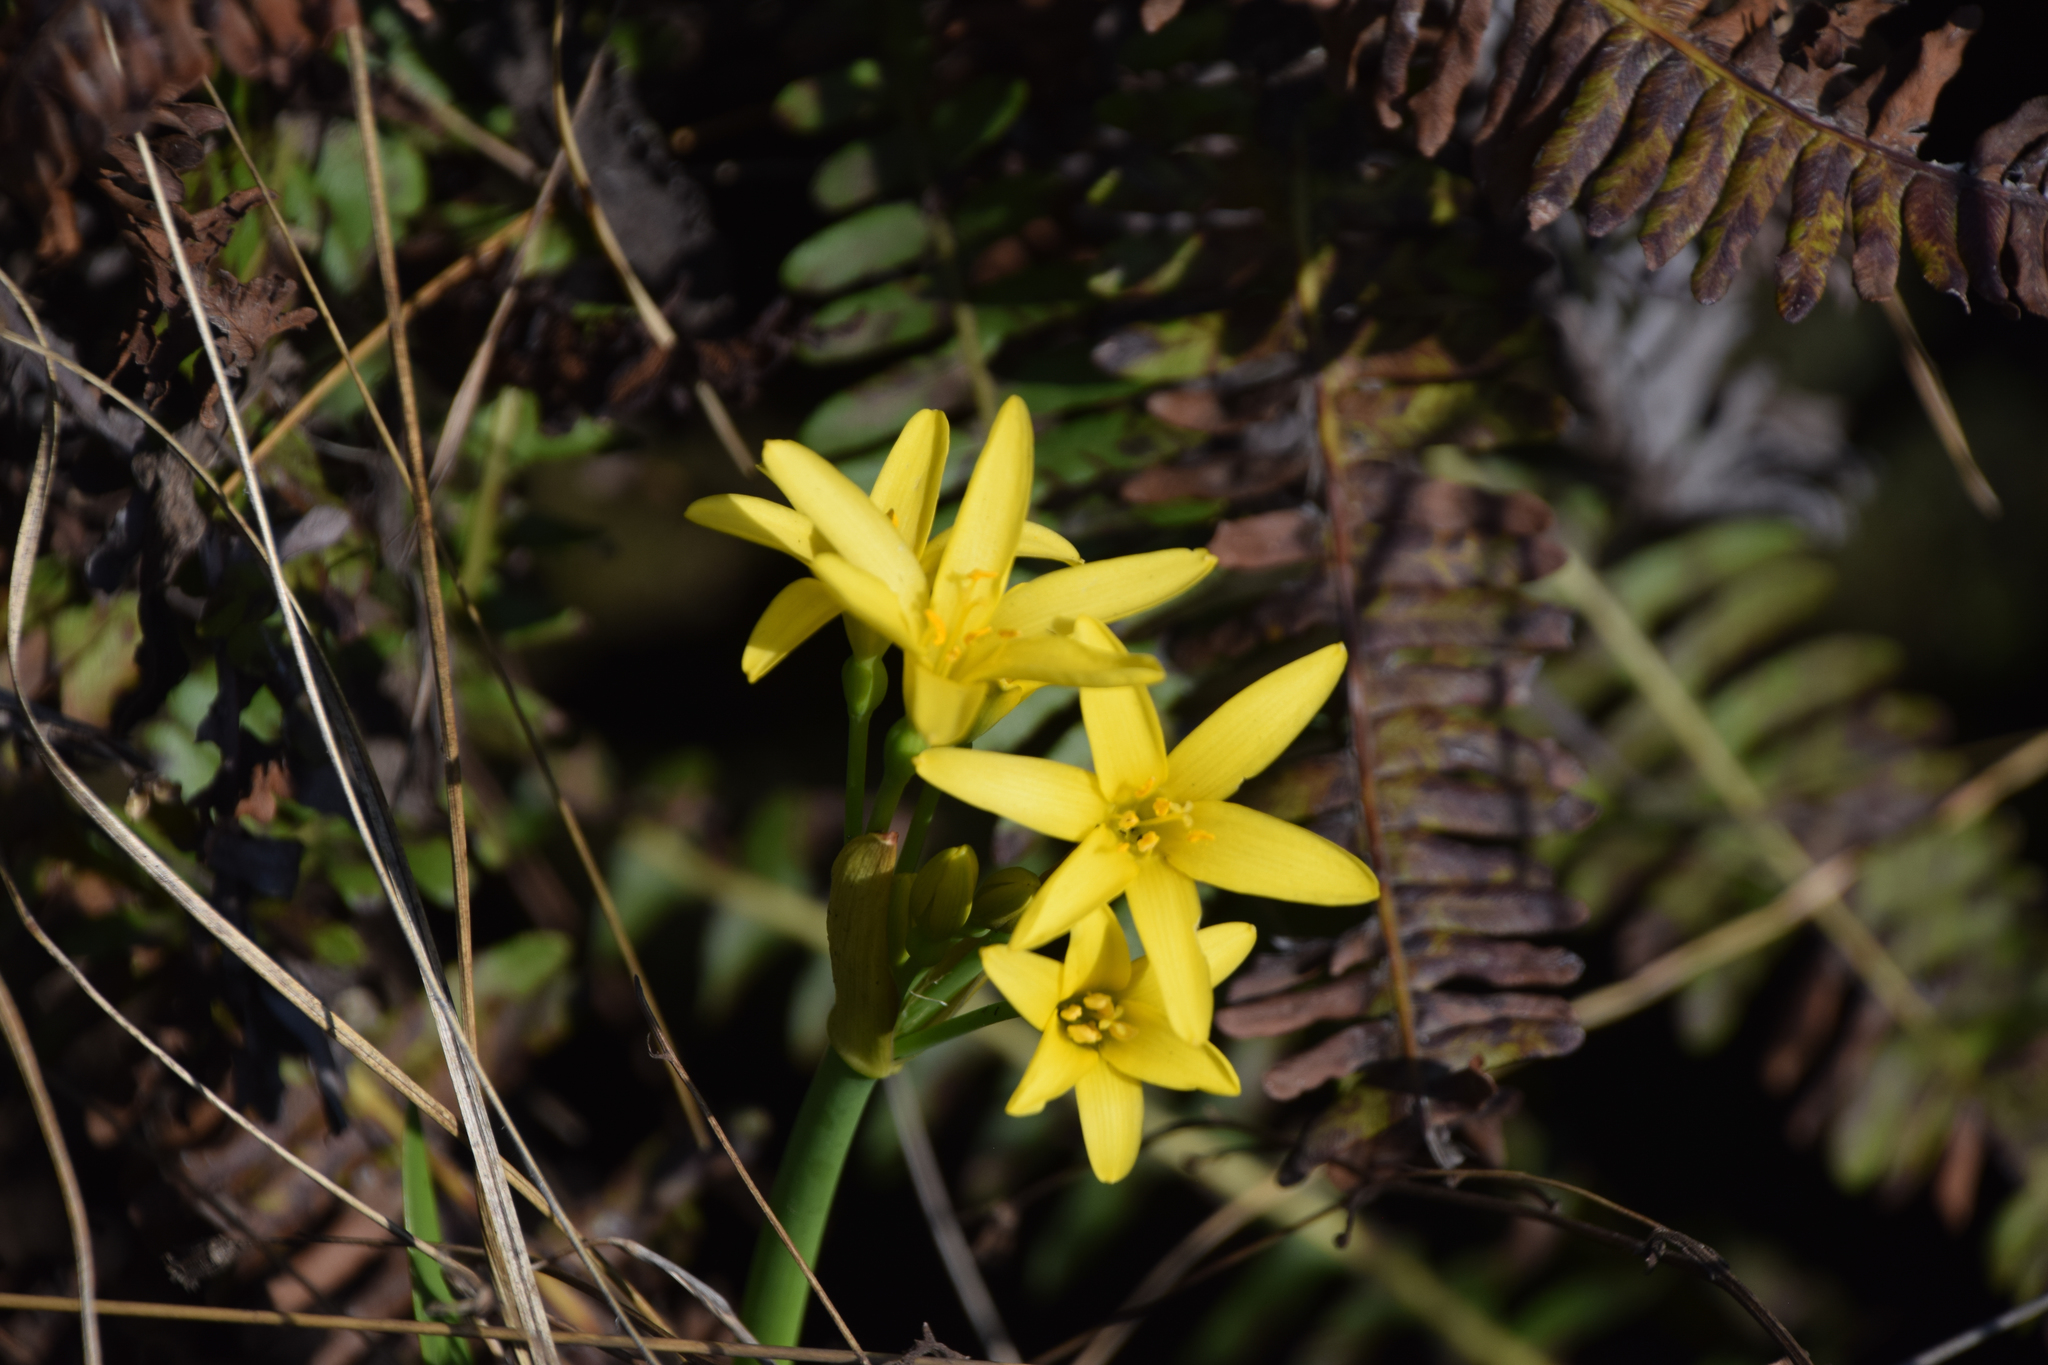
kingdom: Plantae
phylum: Tracheophyta
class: Liliopsida
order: Asparagales
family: Amaryllidaceae
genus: Cyrtanthus
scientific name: Cyrtanthus breviflorus
